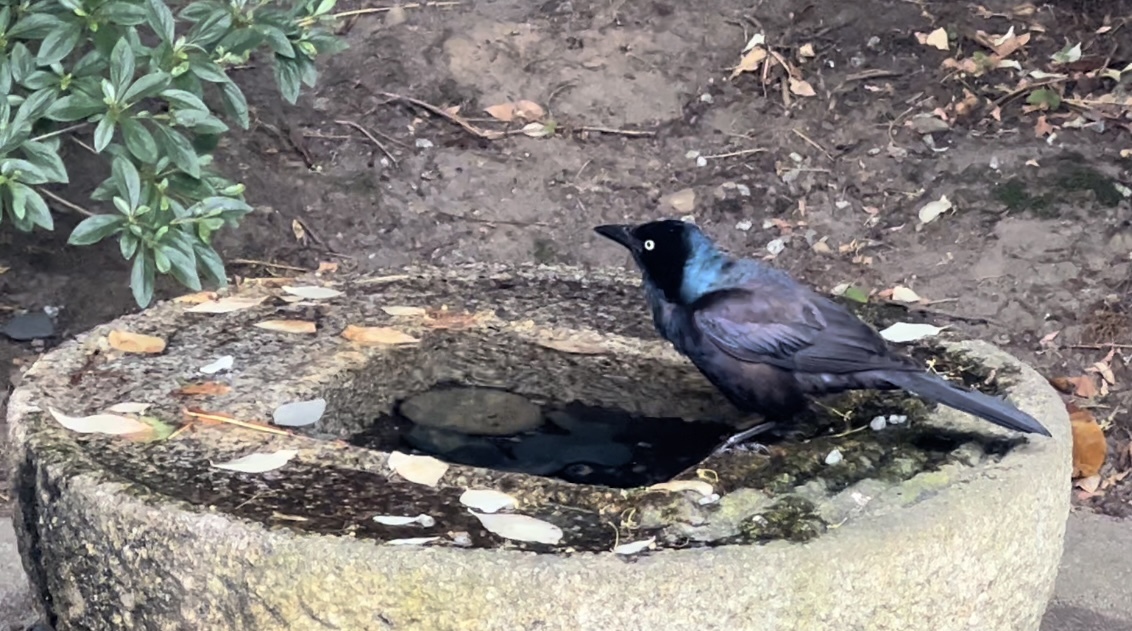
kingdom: Animalia
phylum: Chordata
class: Aves
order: Passeriformes
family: Icteridae
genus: Quiscalus
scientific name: Quiscalus quiscula
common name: Common grackle
